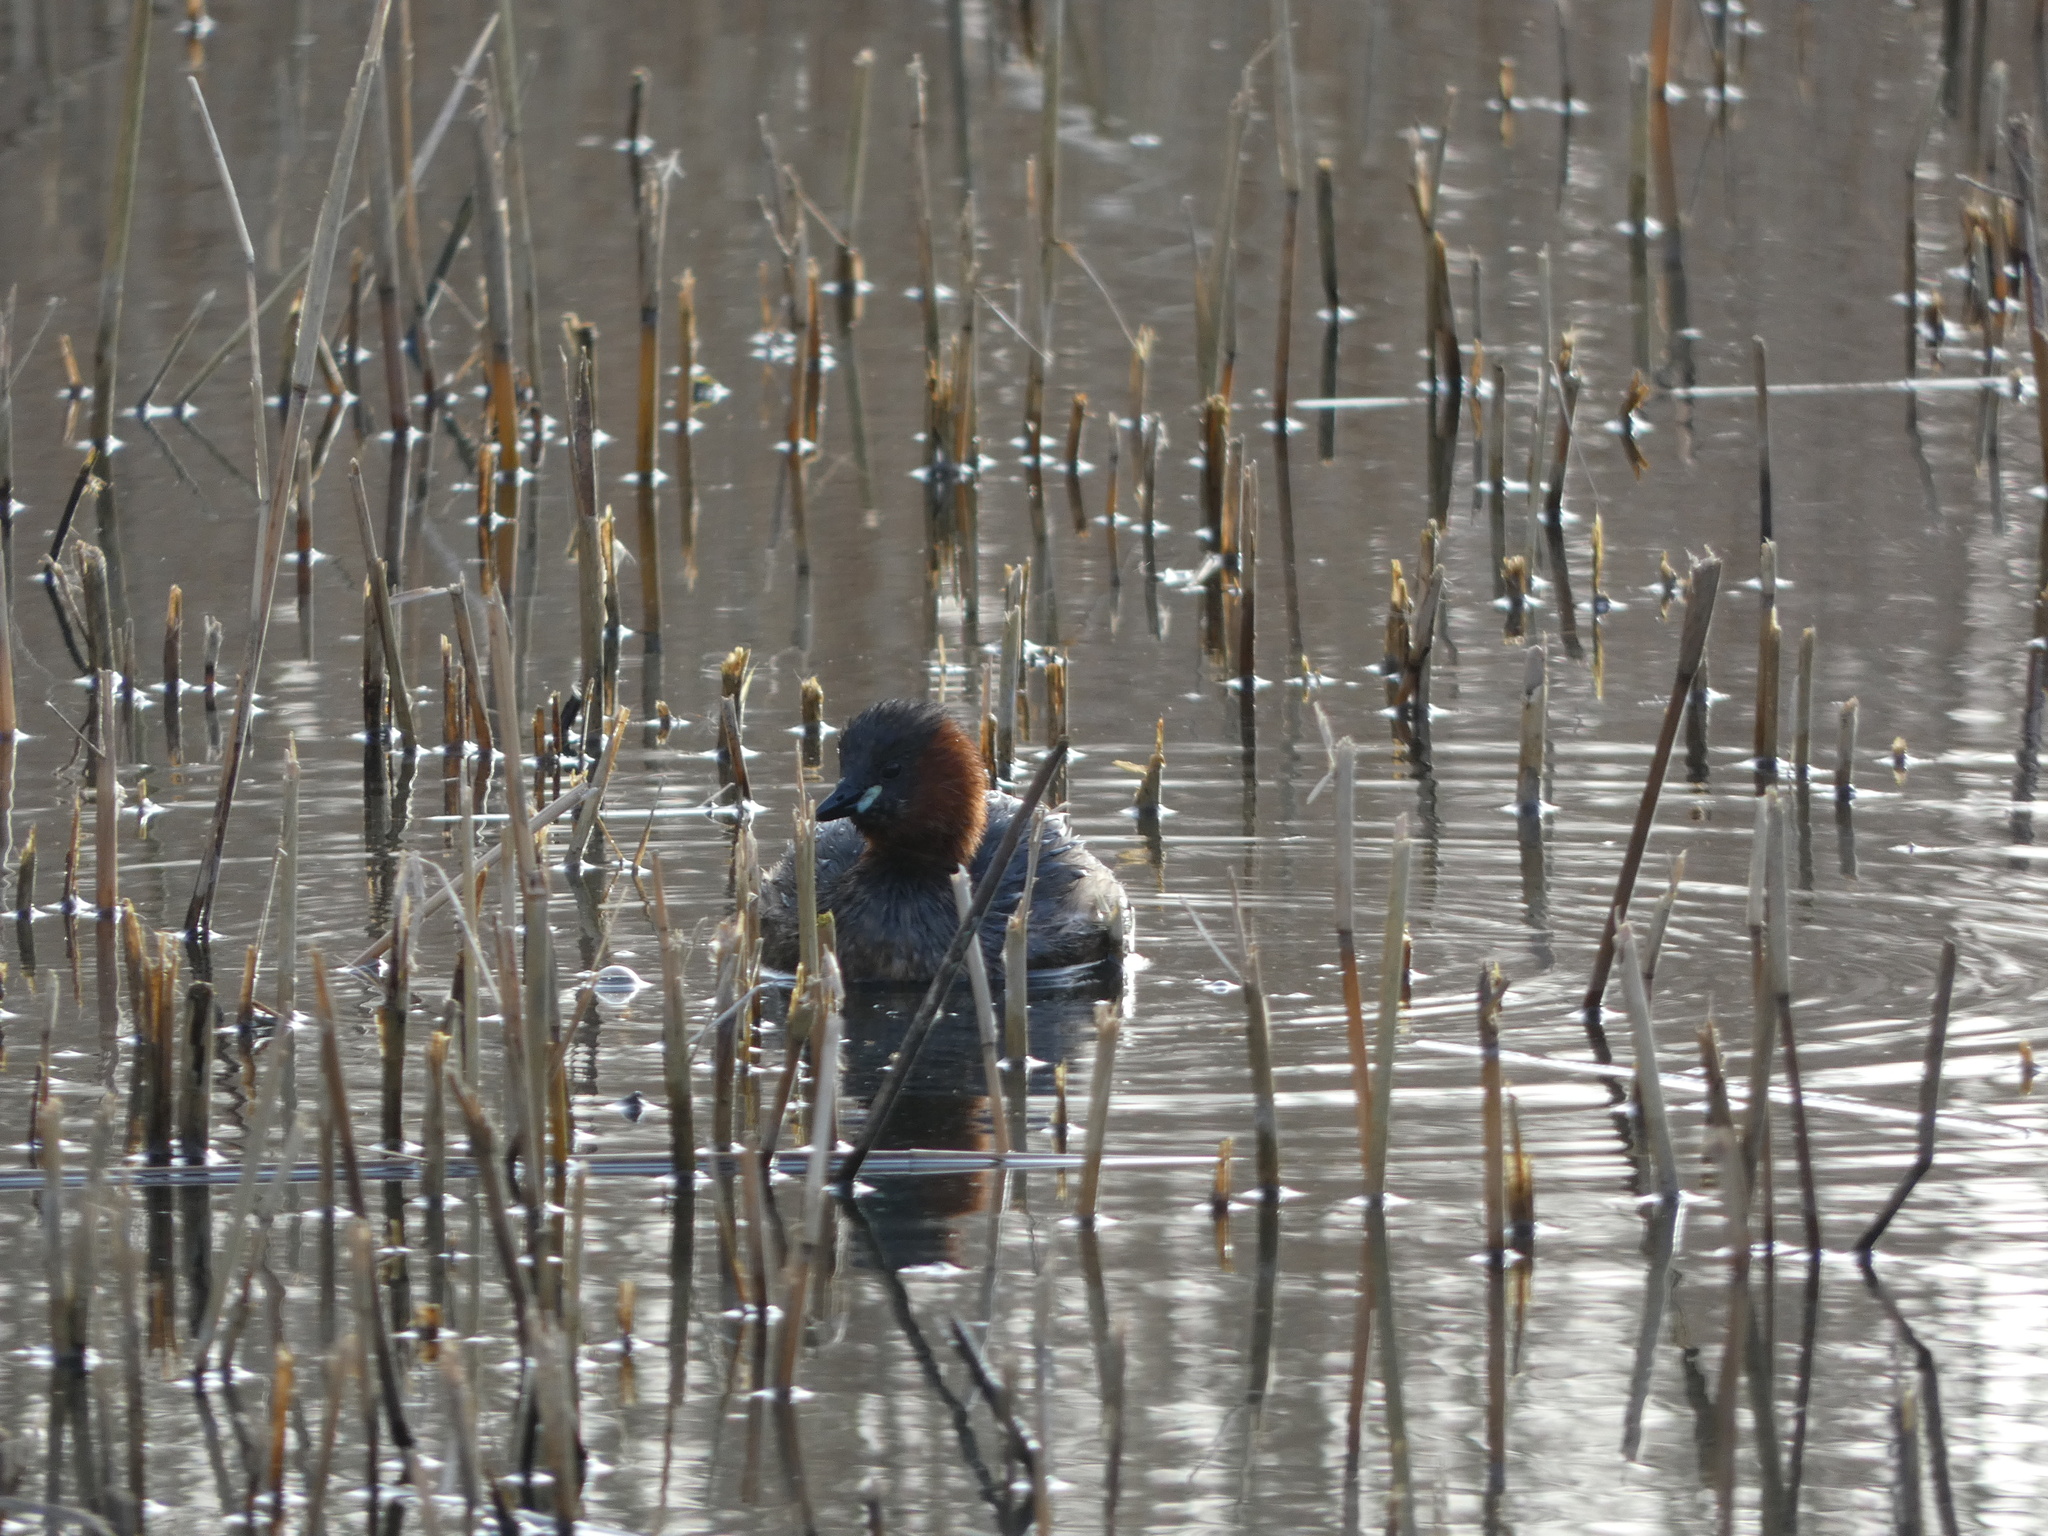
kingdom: Animalia
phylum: Chordata
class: Aves
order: Podicipediformes
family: Podicipedidae
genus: Tachybaptus
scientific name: Tachybaptus ruficollis
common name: Little grebe
